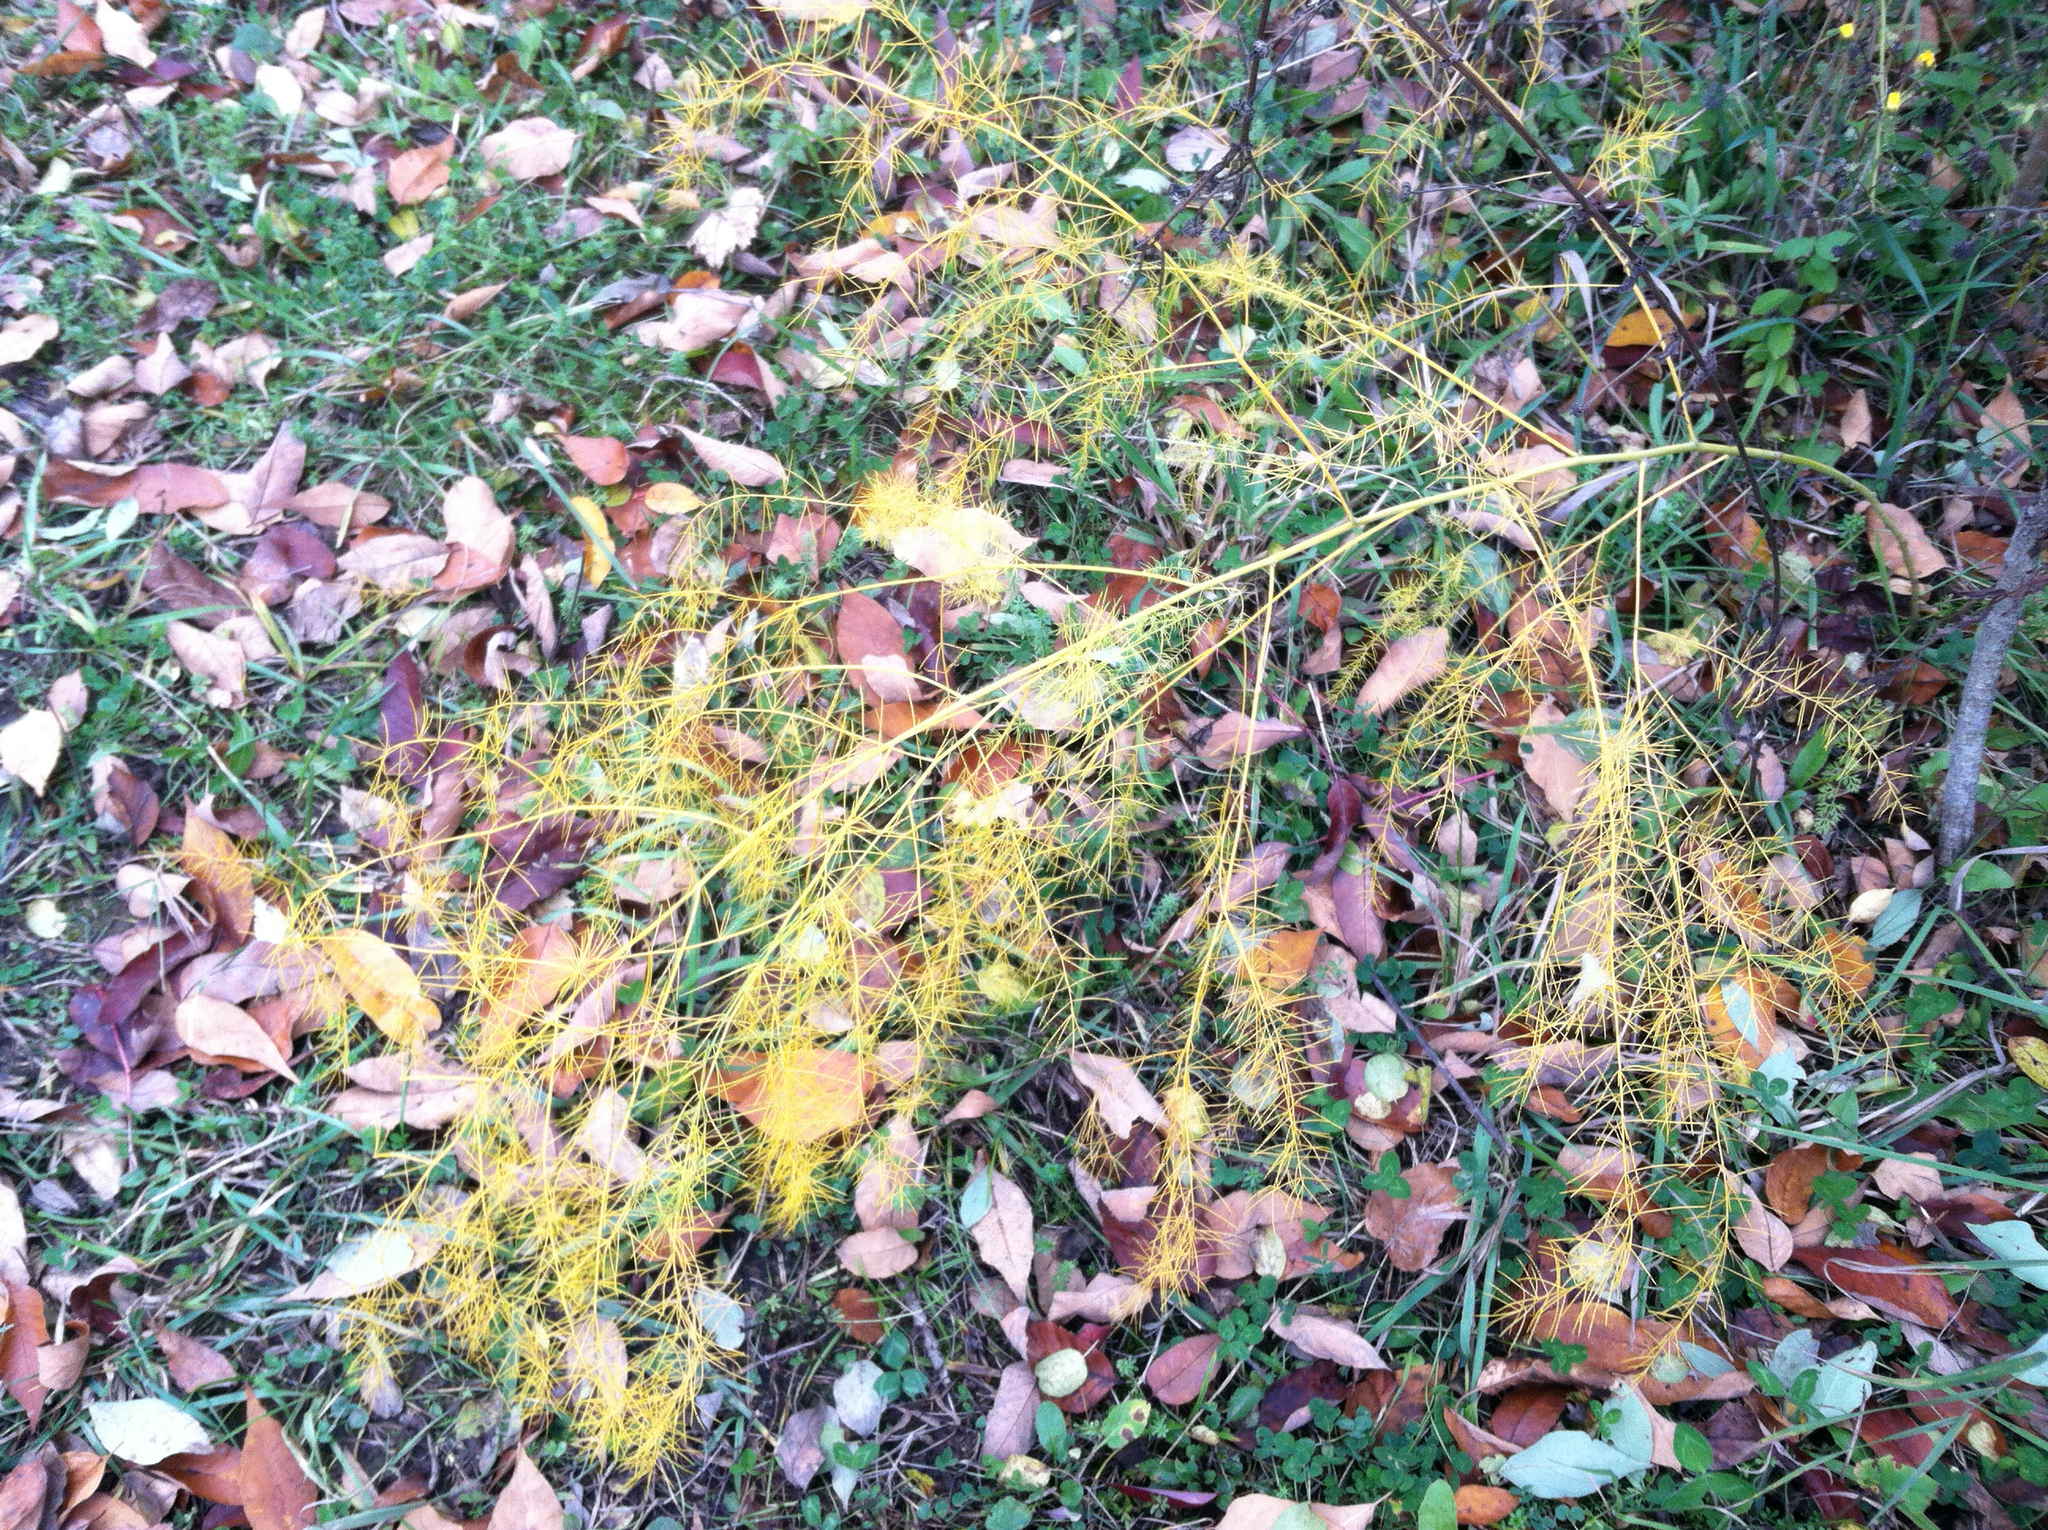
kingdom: Plantae
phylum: Tracheophyta
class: Liliopsida
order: Asparagales
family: Asparagaceae
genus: Asparagus
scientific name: Asparagus officinalis
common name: Garden asparagus
